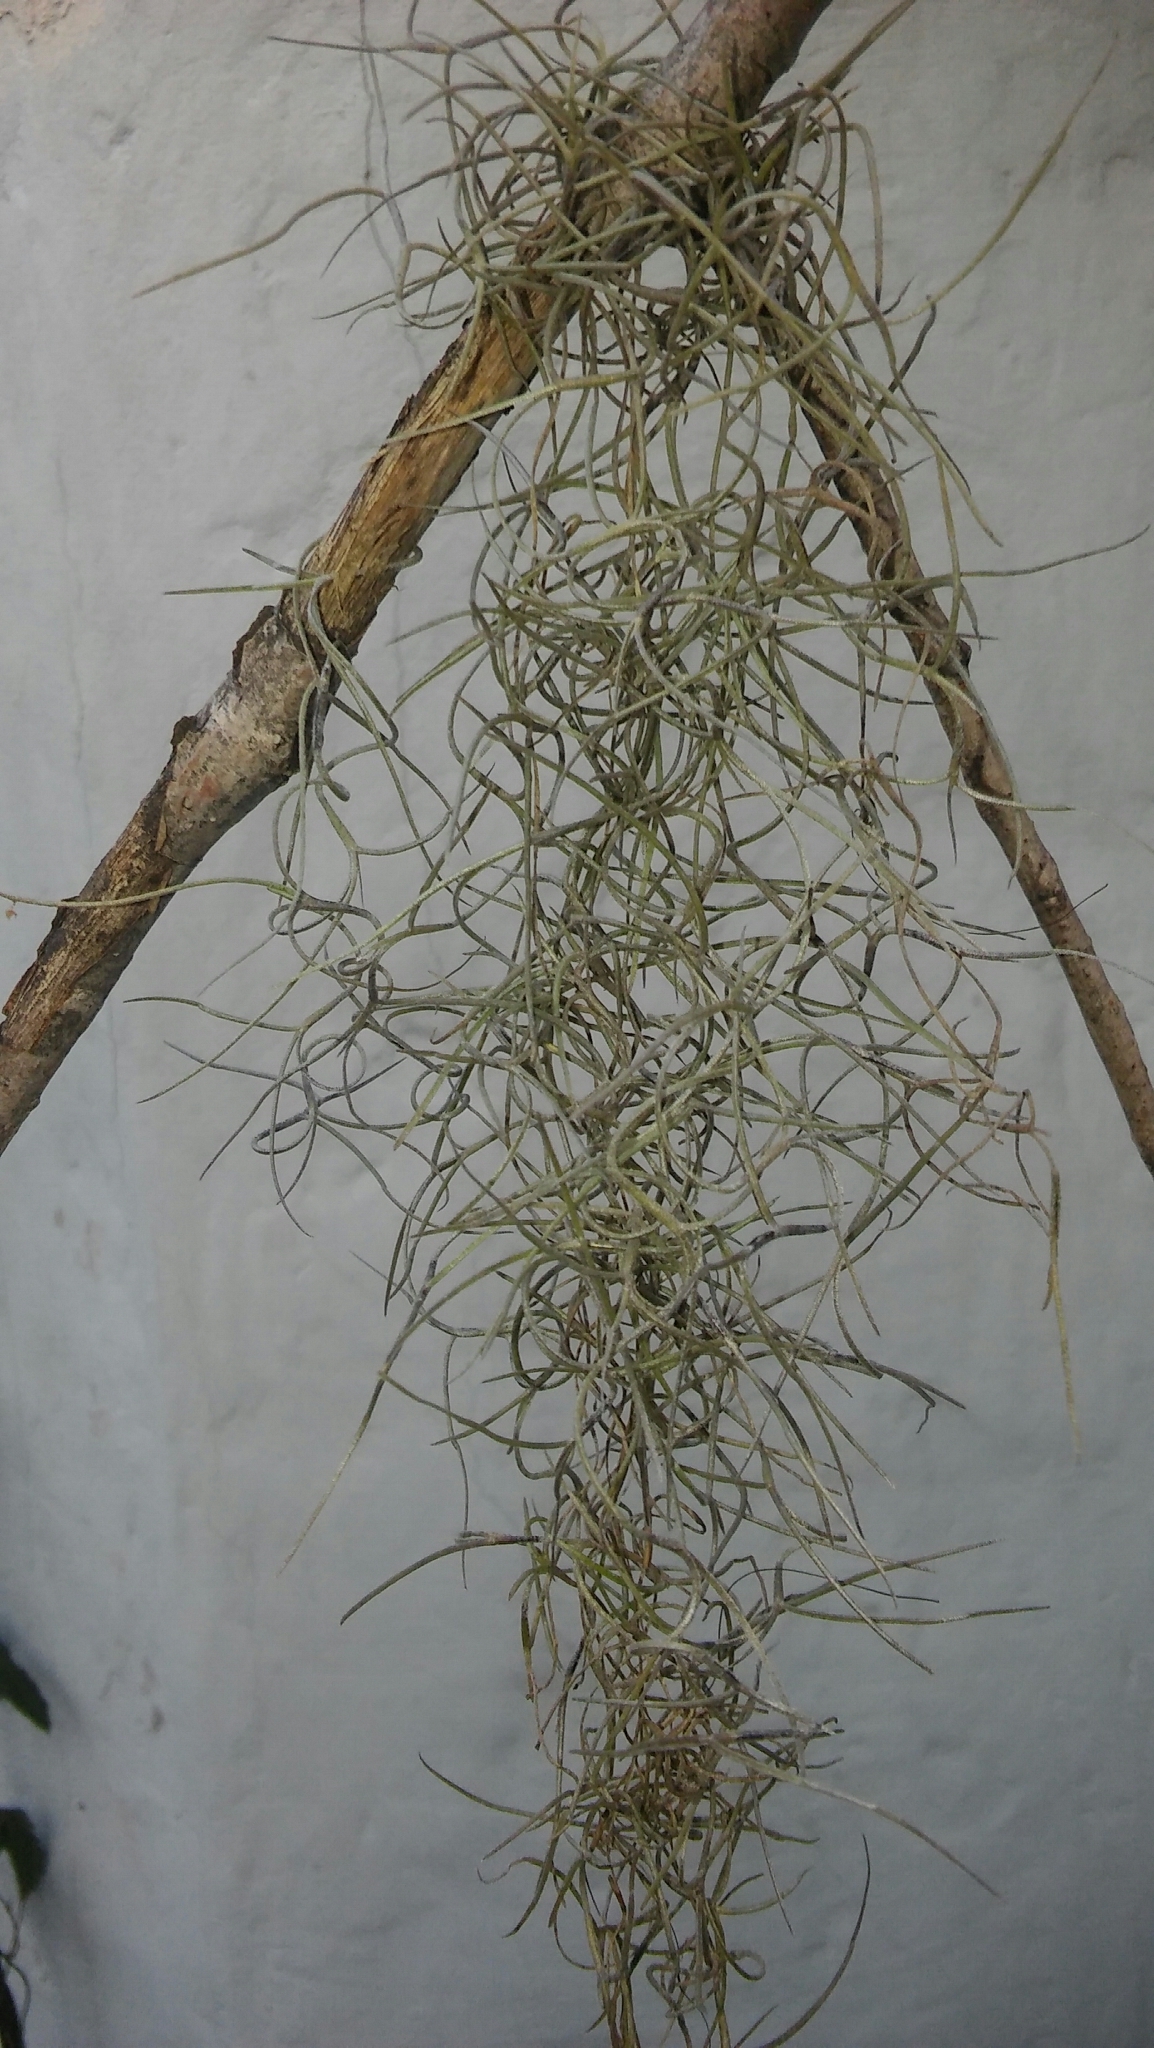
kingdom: Plantae
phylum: Tracheophyta
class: Liliopsida
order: Poales
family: Bromeliaceae
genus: Tillandsia
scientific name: Tillandsia usneoides
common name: Spanish moss
